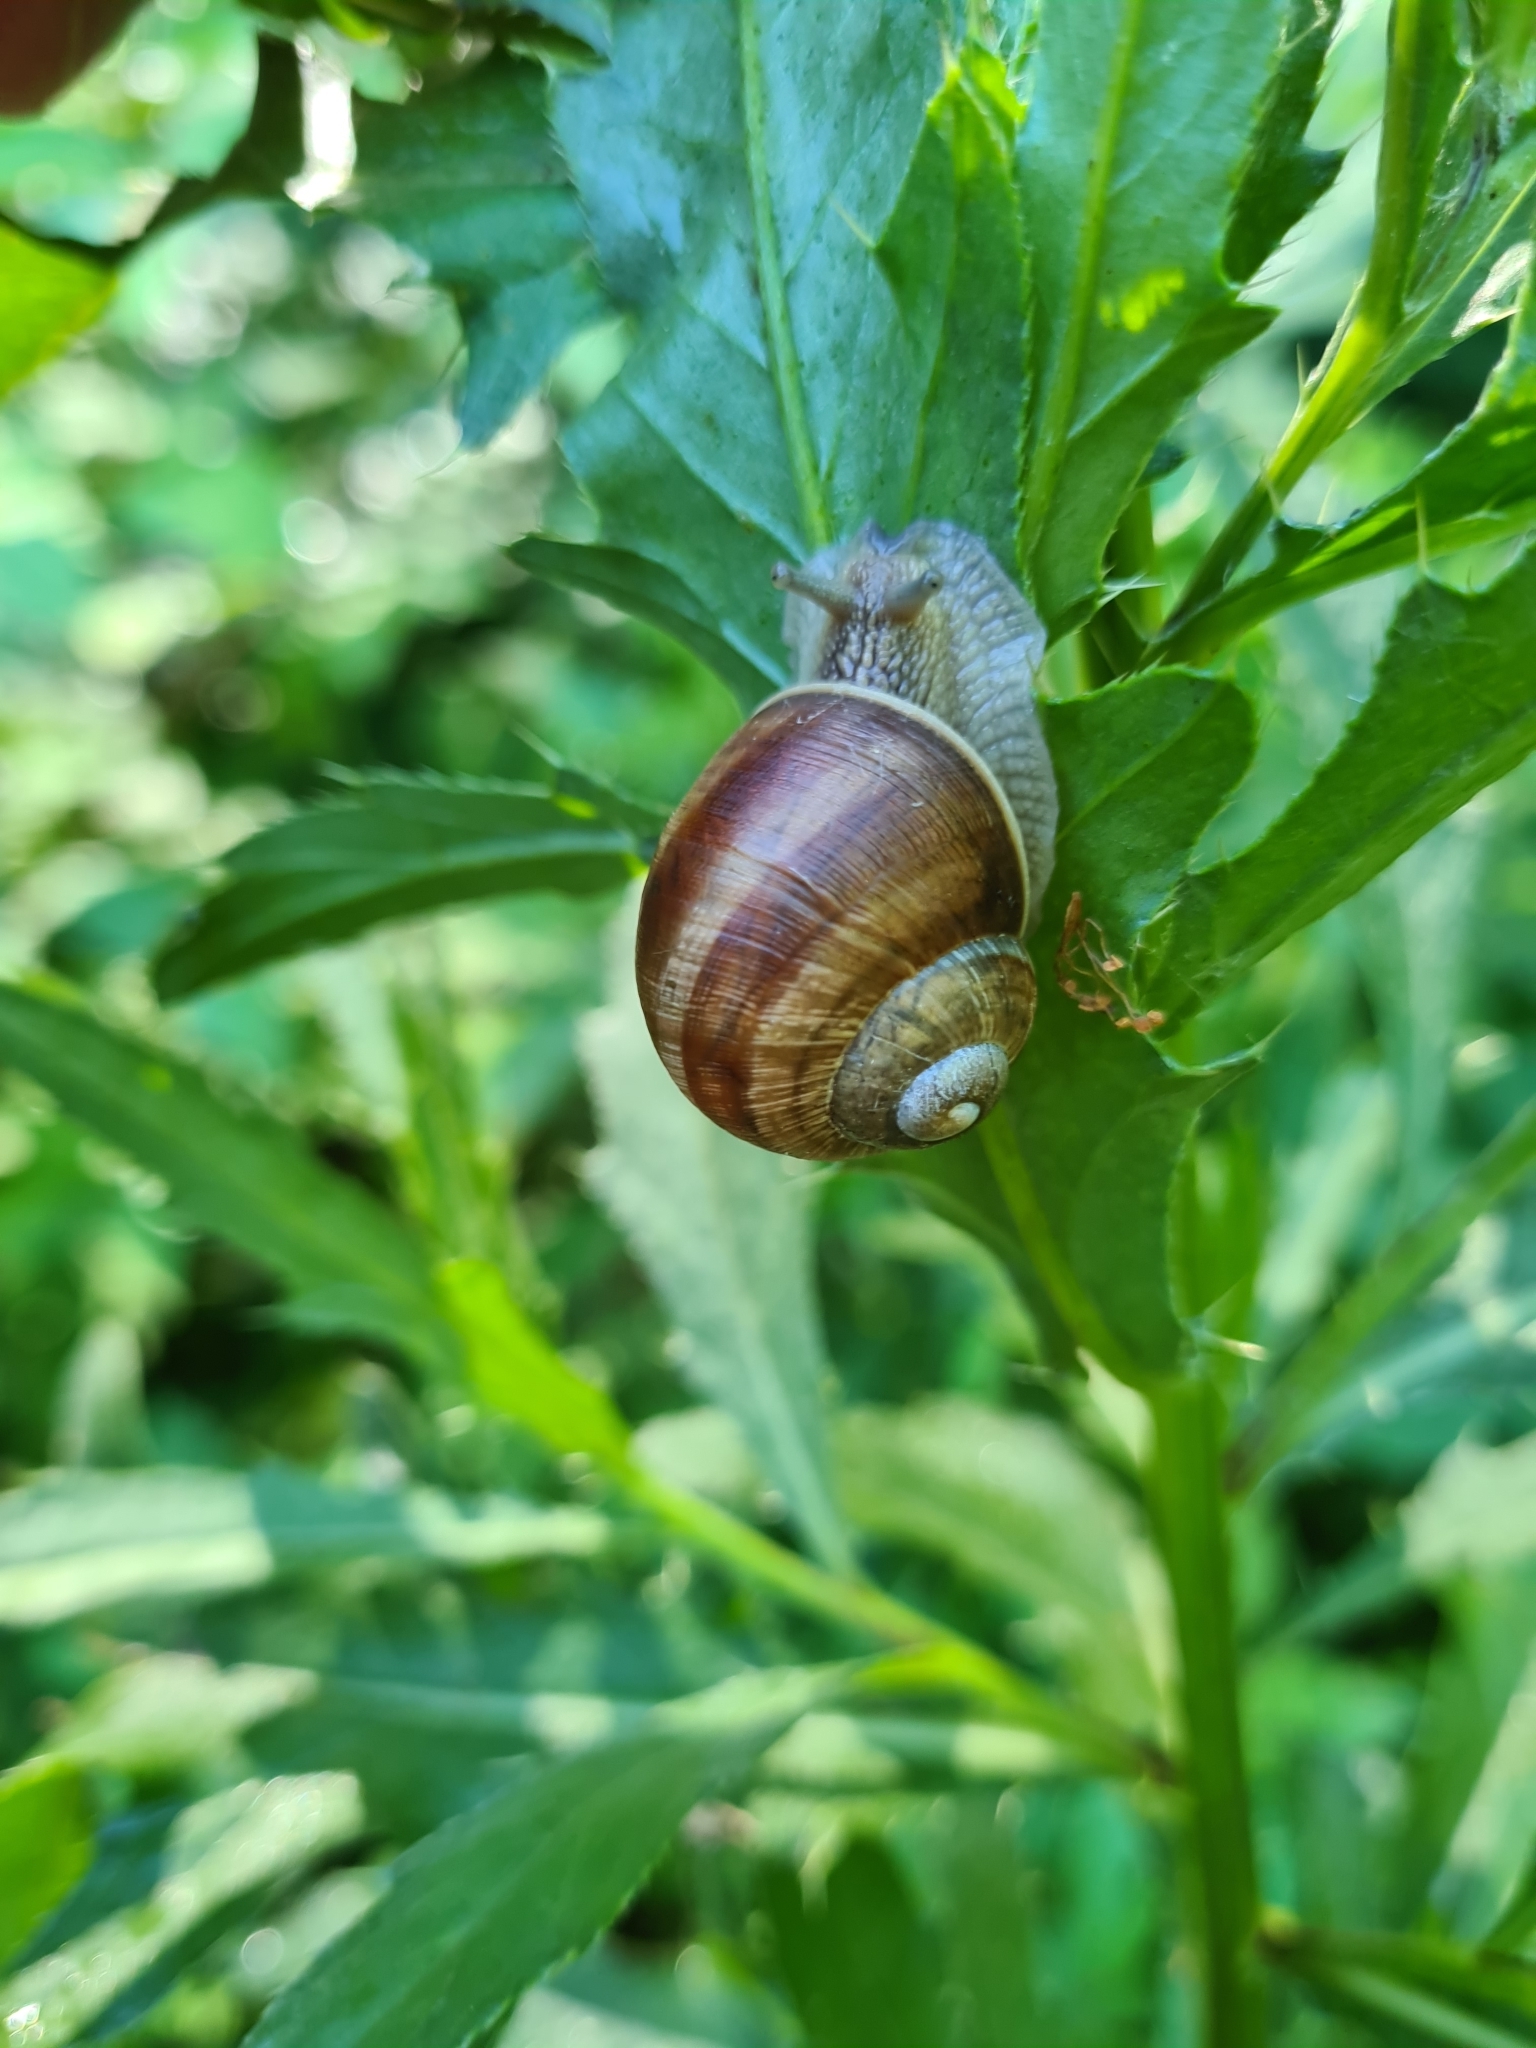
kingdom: Animalia
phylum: Mollusca
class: Gastropoda
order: Stylommatophora
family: Helicidae
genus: Helix
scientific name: Helix pomatia
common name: Roman snail
